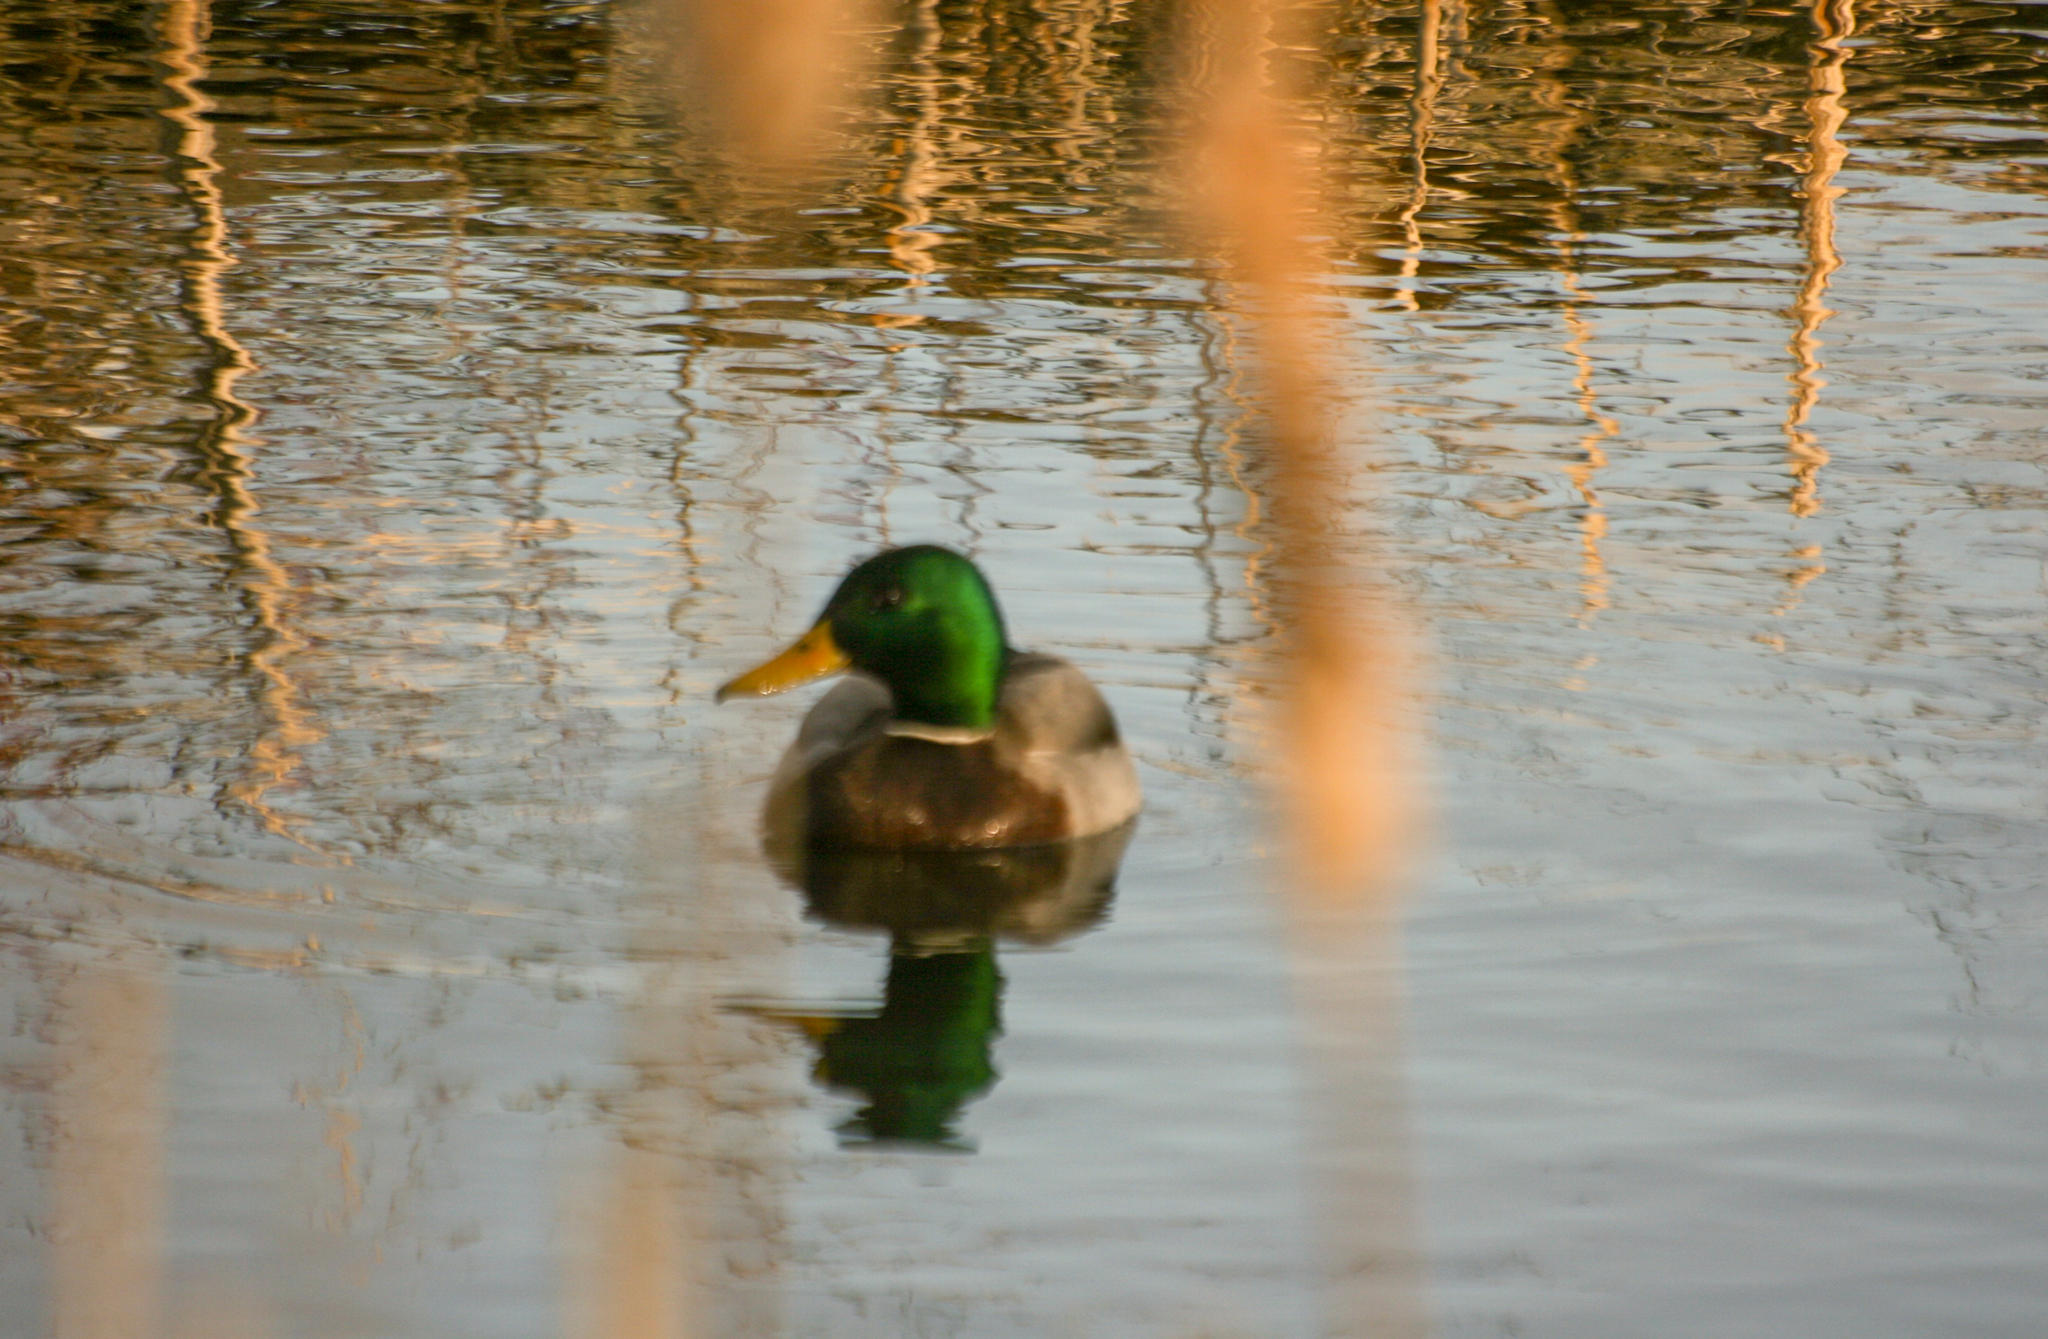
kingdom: Animalia
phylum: Chordata
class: Aves
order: Anseriformes
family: Anatidae
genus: Anas
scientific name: Anas platyrhynchos
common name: Mallard
